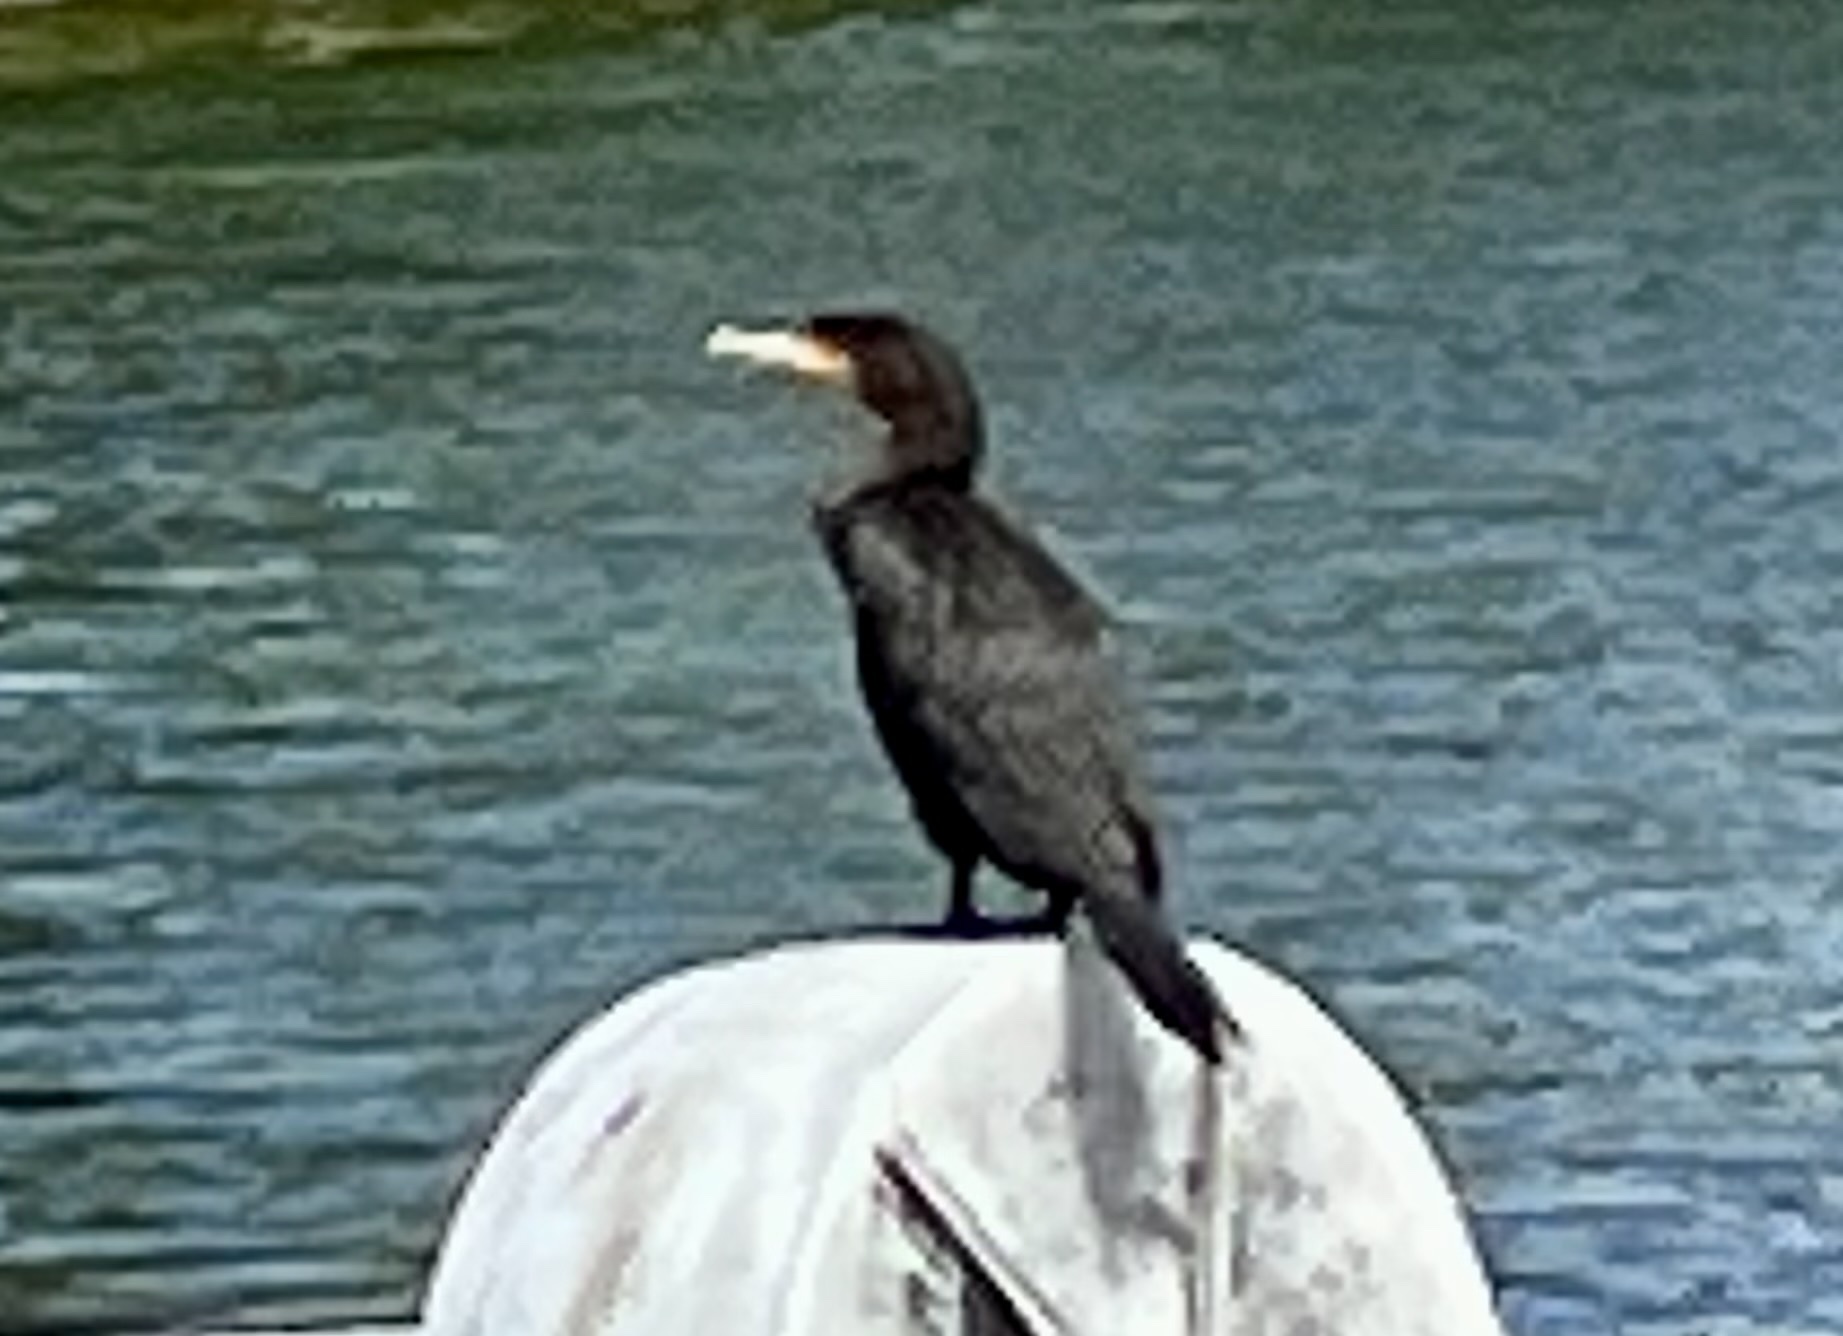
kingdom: Animalia
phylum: Chordata
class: Aves
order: Suliformes
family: Phalacrocoracidae
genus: Phalacrocorax
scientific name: Phalacrocorax auritus
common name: Double-crested cormorant
